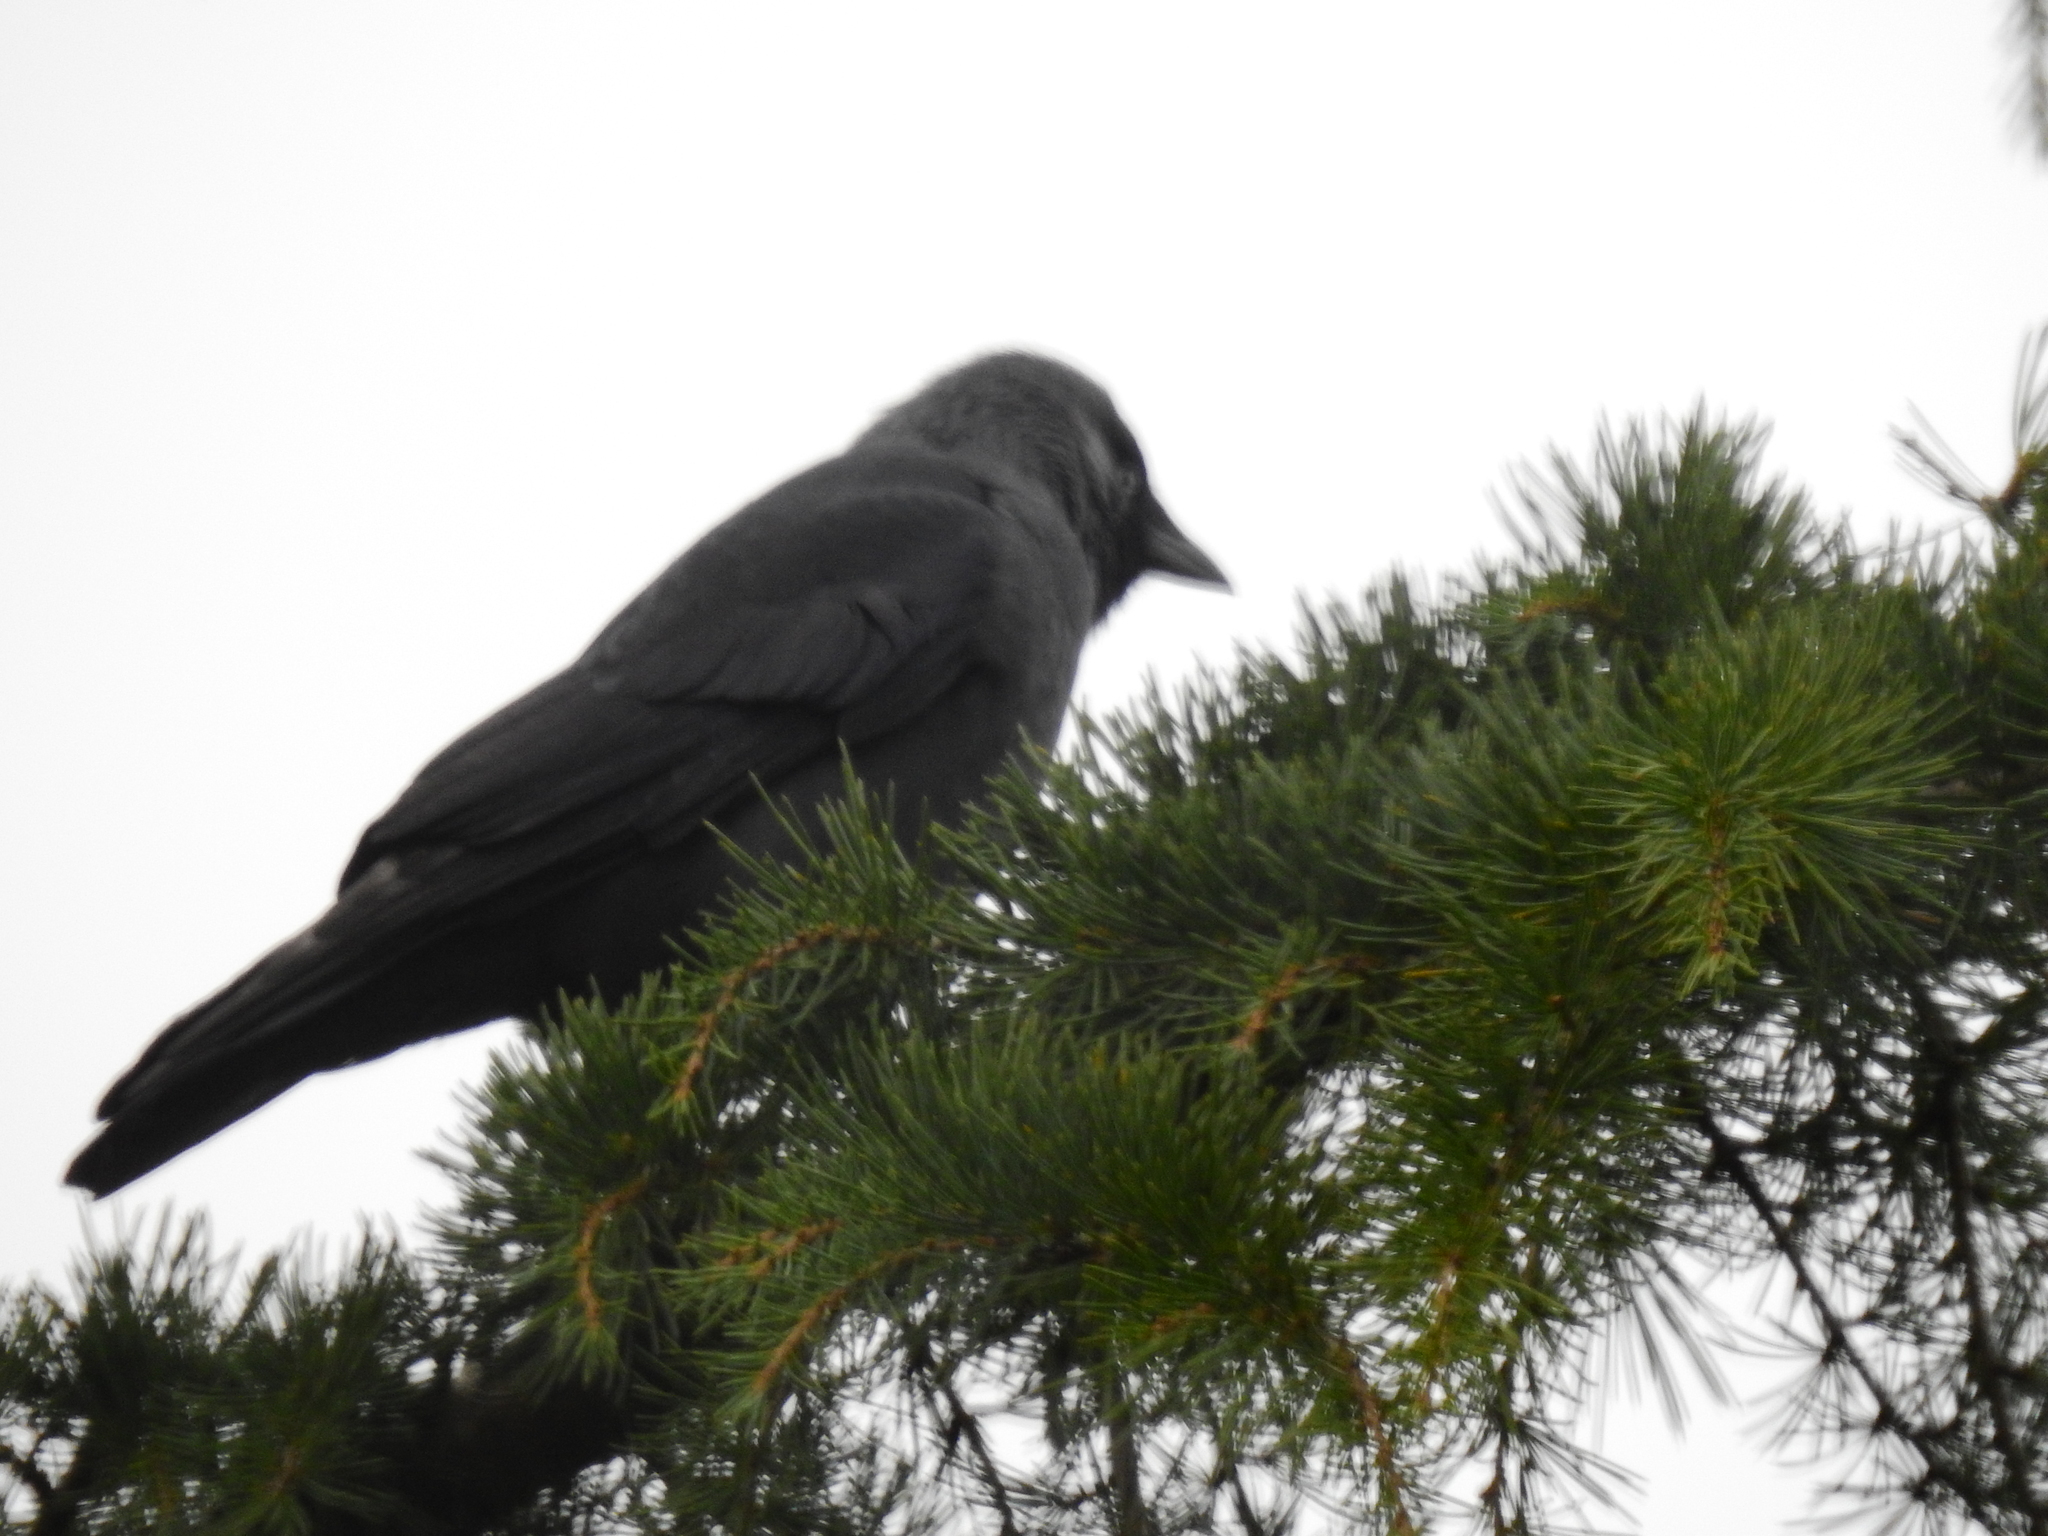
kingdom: Animalia
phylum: Chordata
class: Aves
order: Passeriformes
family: Corvidae
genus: Coloeus
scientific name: Coloeus monedula
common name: Western jackdaw
